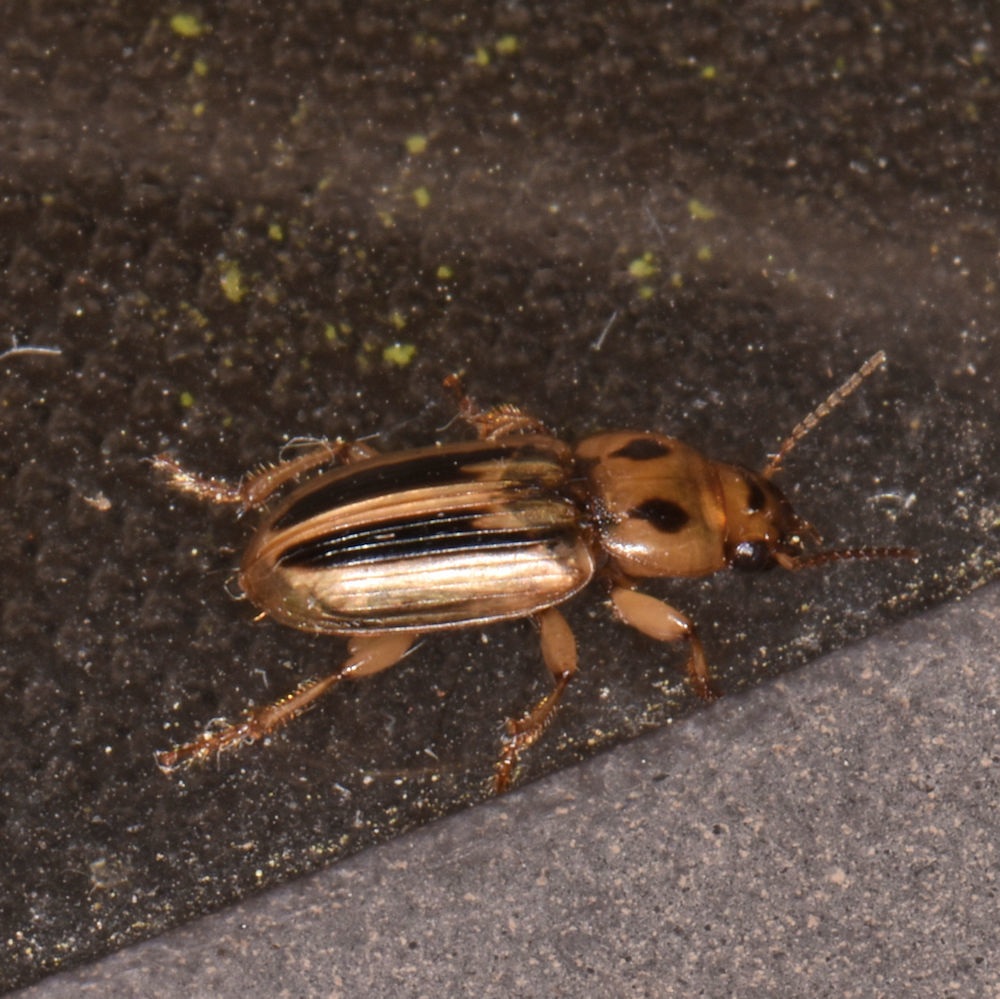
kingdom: Animalia
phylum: Arthropoda
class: Insecta
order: Coleoptera
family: Carabidae
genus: Stenolophus
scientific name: Stenolophus lineola
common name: Lined stenolophus
